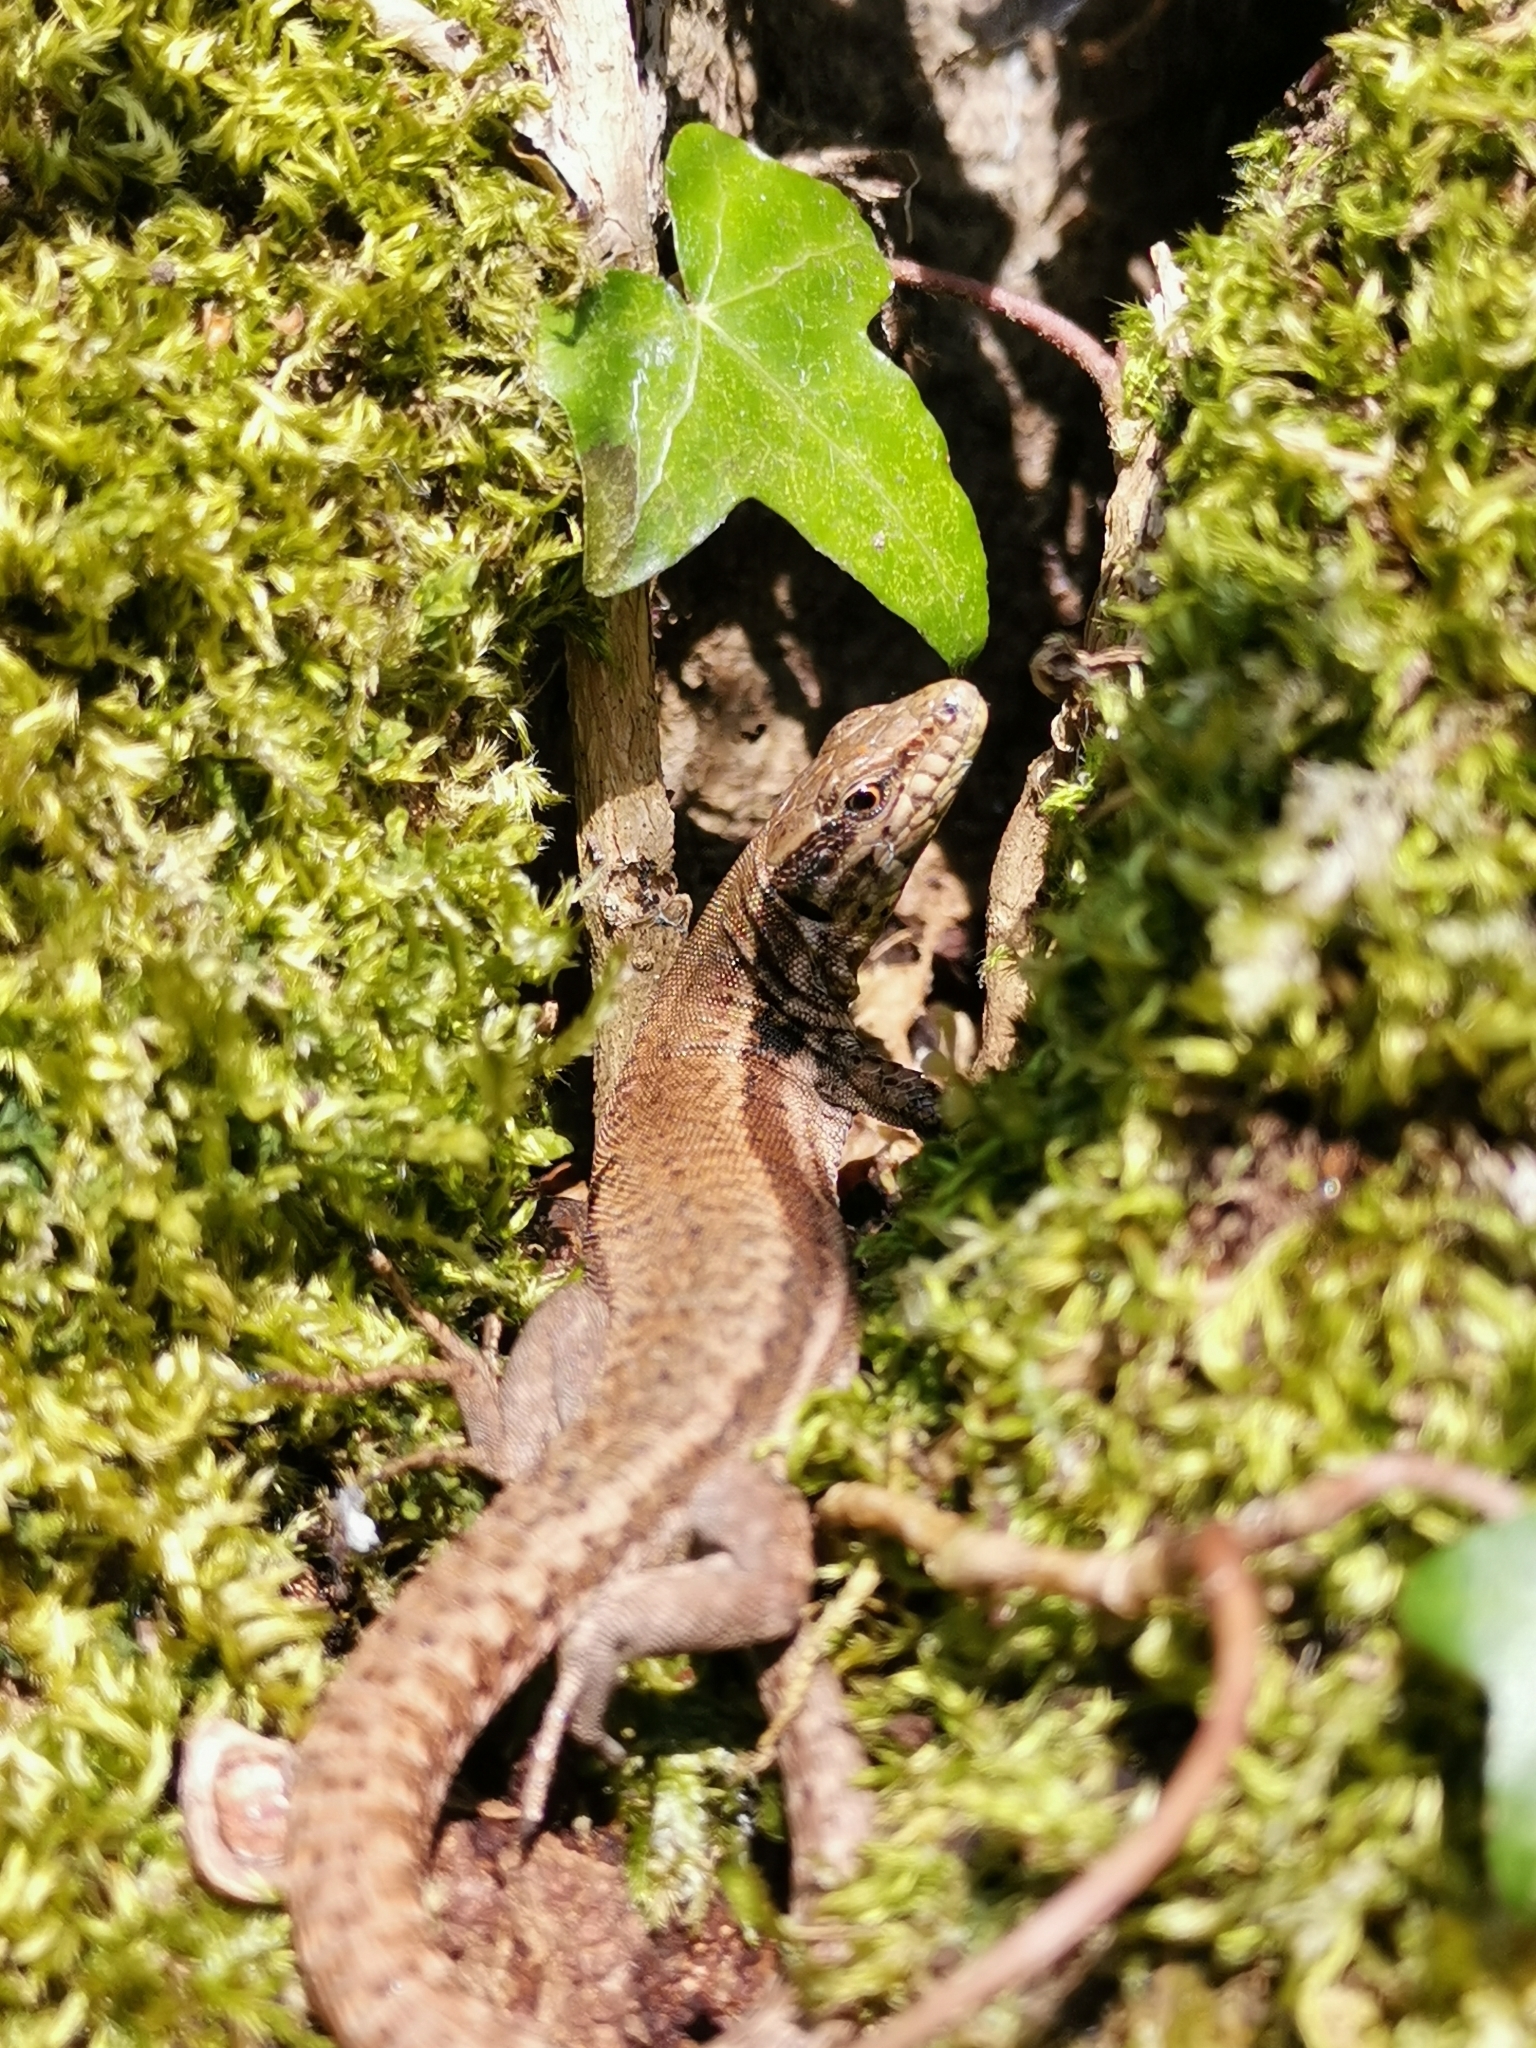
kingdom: Animalia
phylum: Chordata
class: Squamata
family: Lacertidae
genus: Podarcis
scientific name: Podarcis muralis
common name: Common wall lizard
